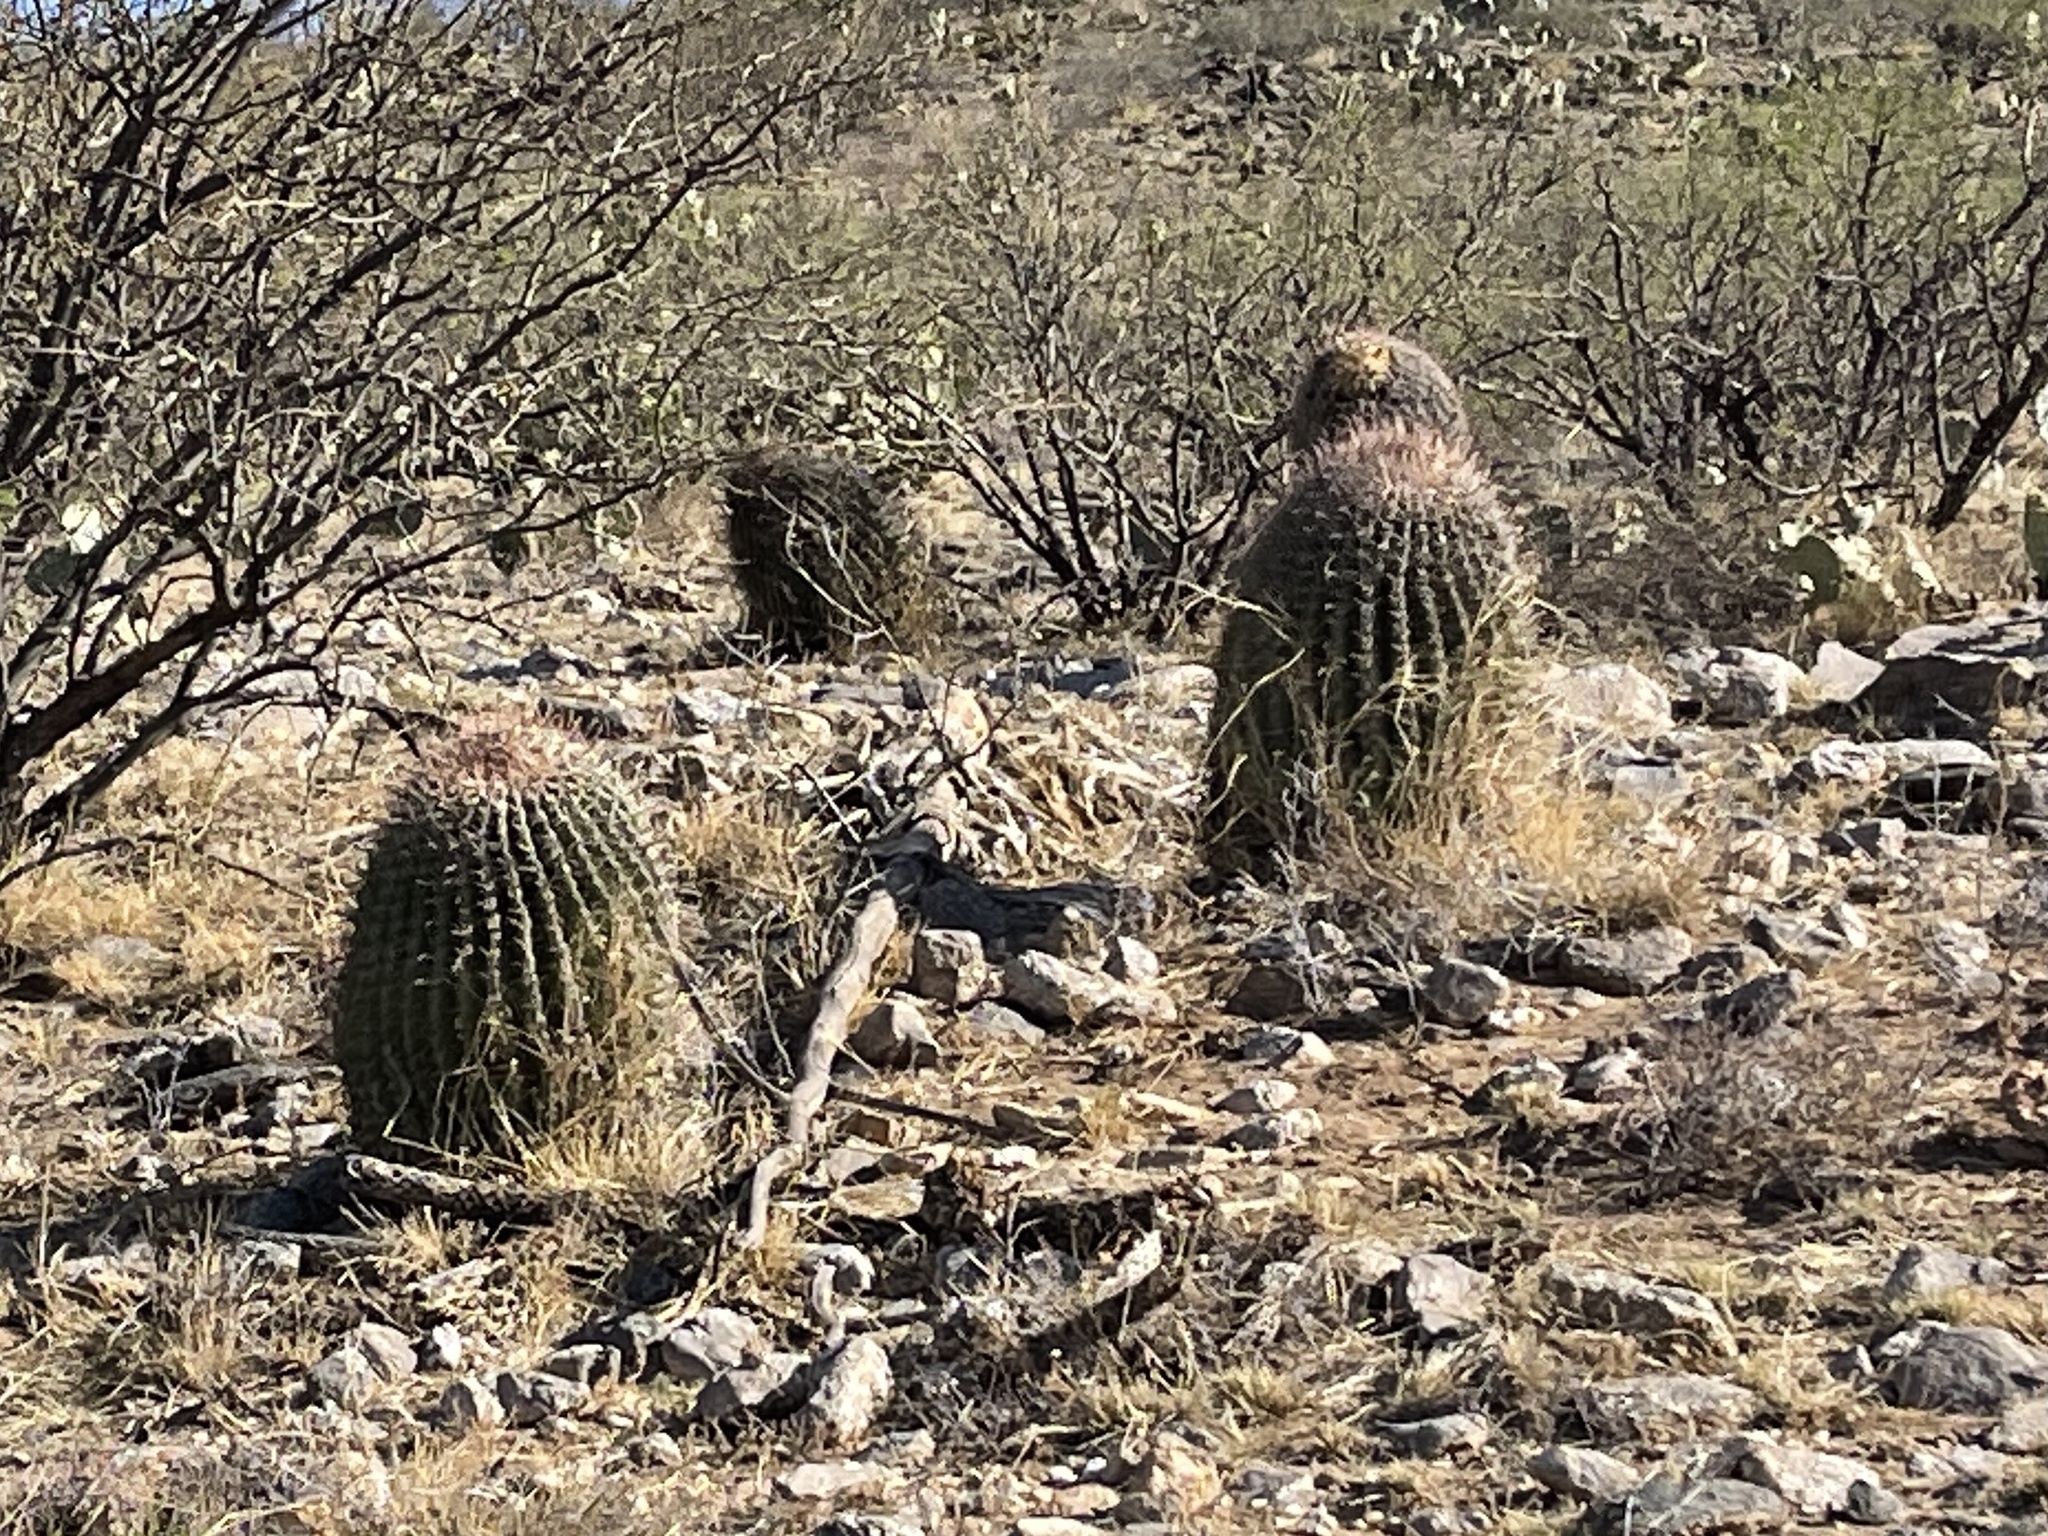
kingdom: Plantae
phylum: Tracheophyta
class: Magnoliopsida
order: Caryophyllales
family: Cactaceae
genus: Ferocactus
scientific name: Ferocactus wislizeni
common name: Candy barrel cactus
